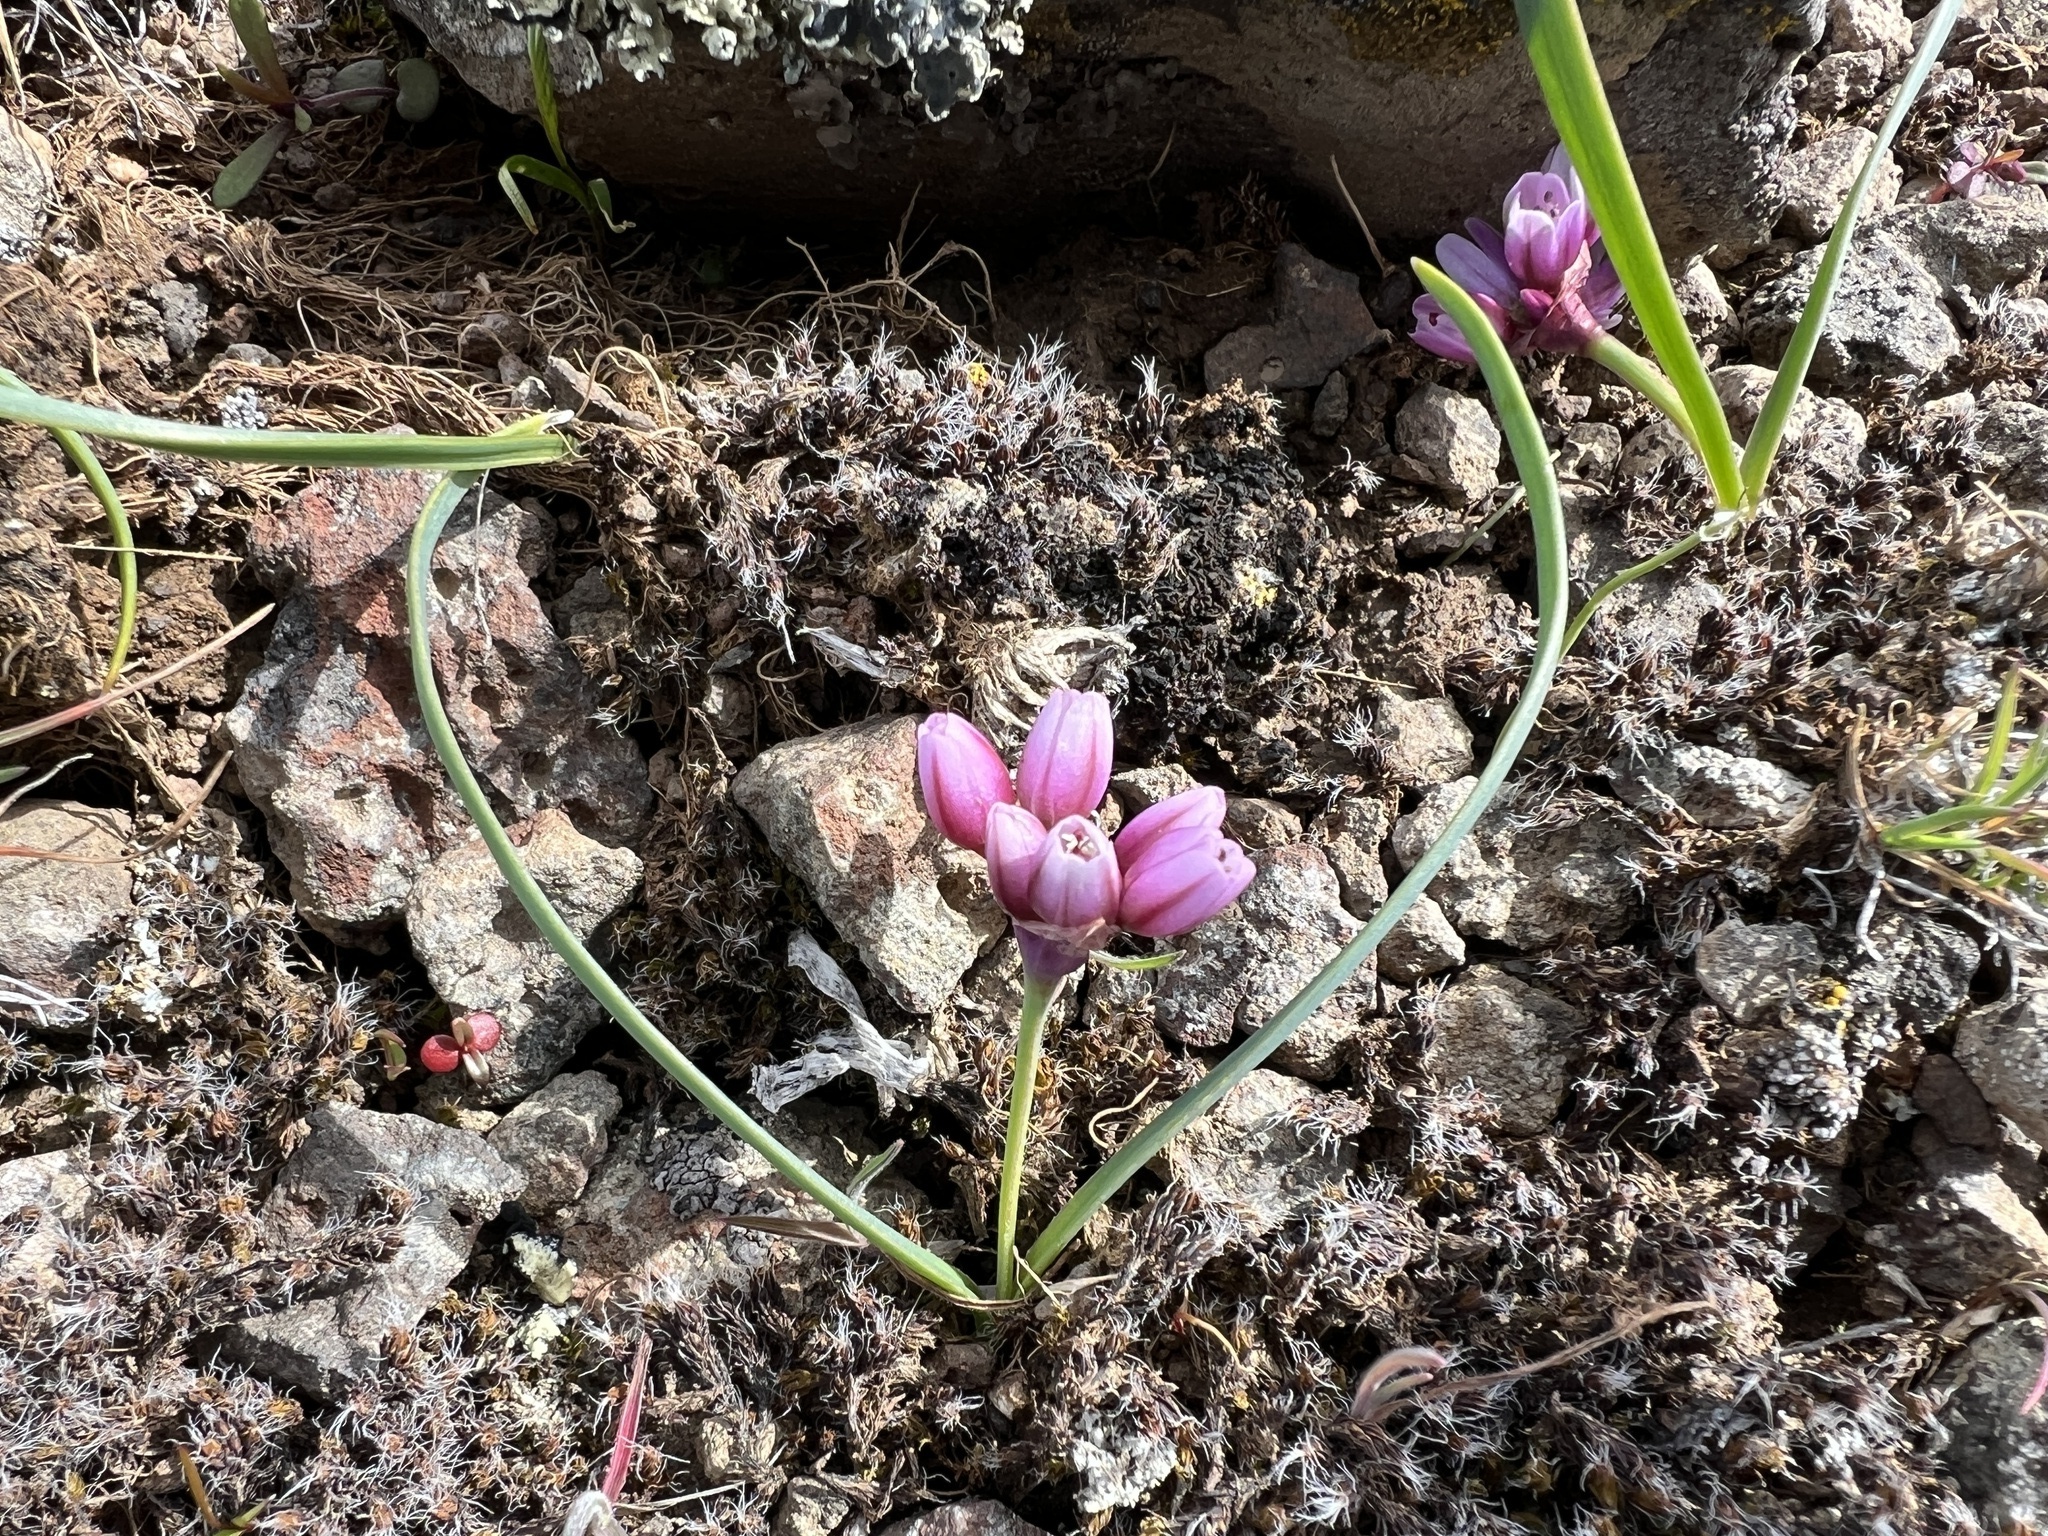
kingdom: Plantae
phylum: Tracheophyta
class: Liliopsida
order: Asparagales
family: Amaryllidaceae
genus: Allium
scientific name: Allium scilloides
